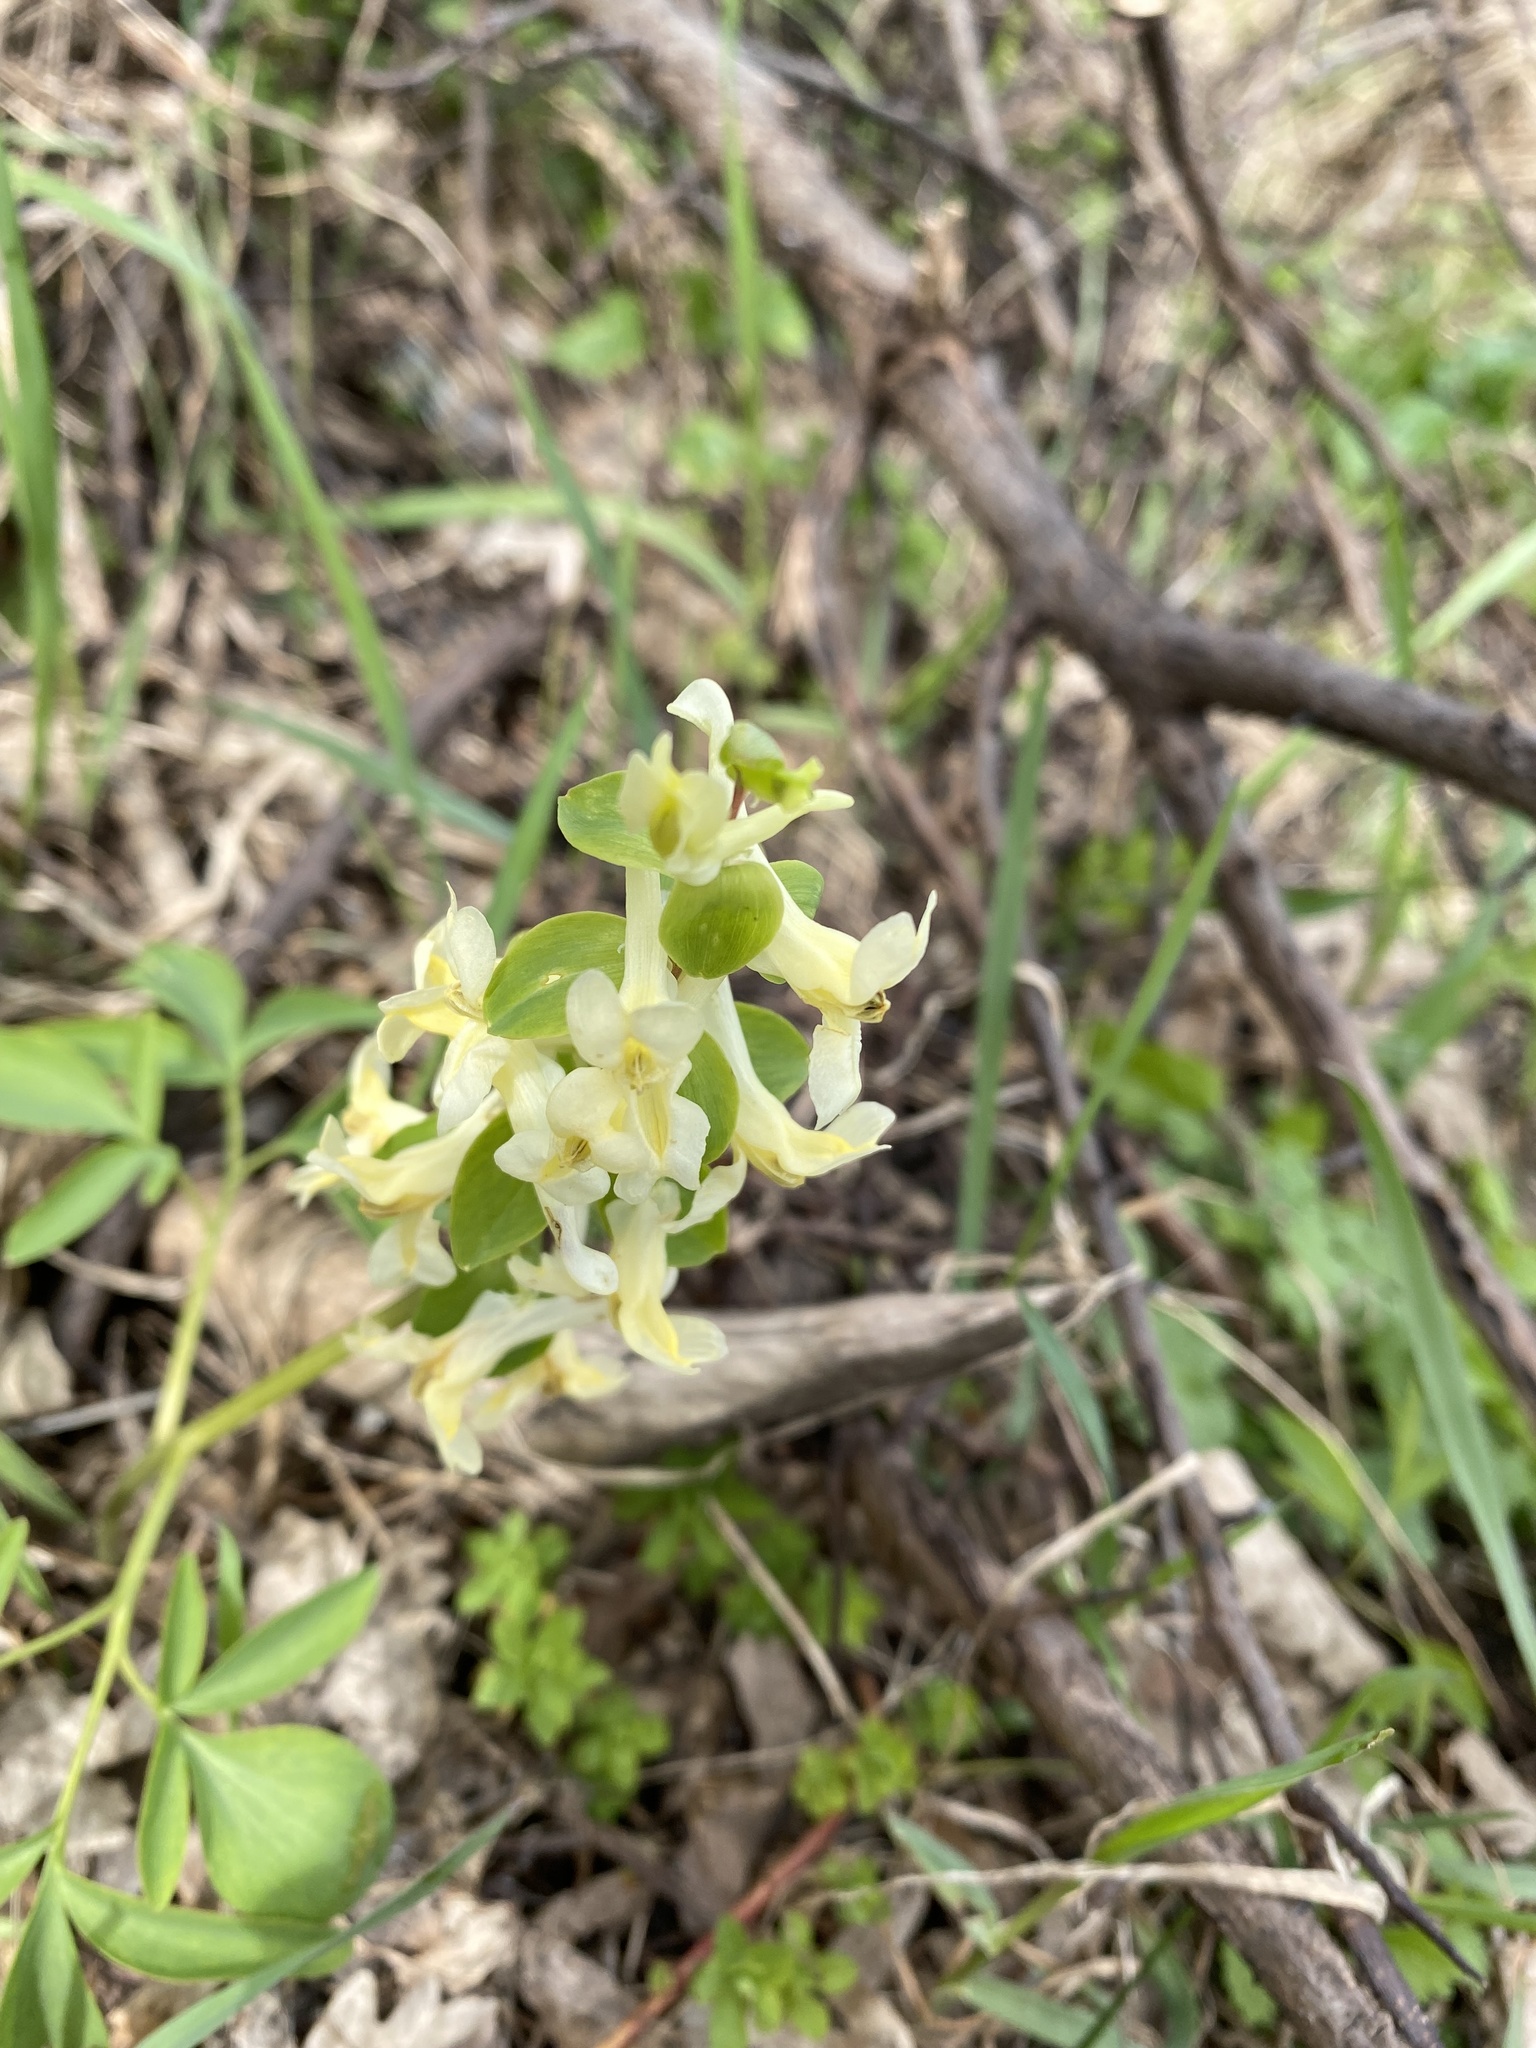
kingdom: Plantae
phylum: Tracheophyta
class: Magnoliopsida
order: Ranunculales
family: Papaveraceae
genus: Corydalis
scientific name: Corydalis cava
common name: Hollowroot
